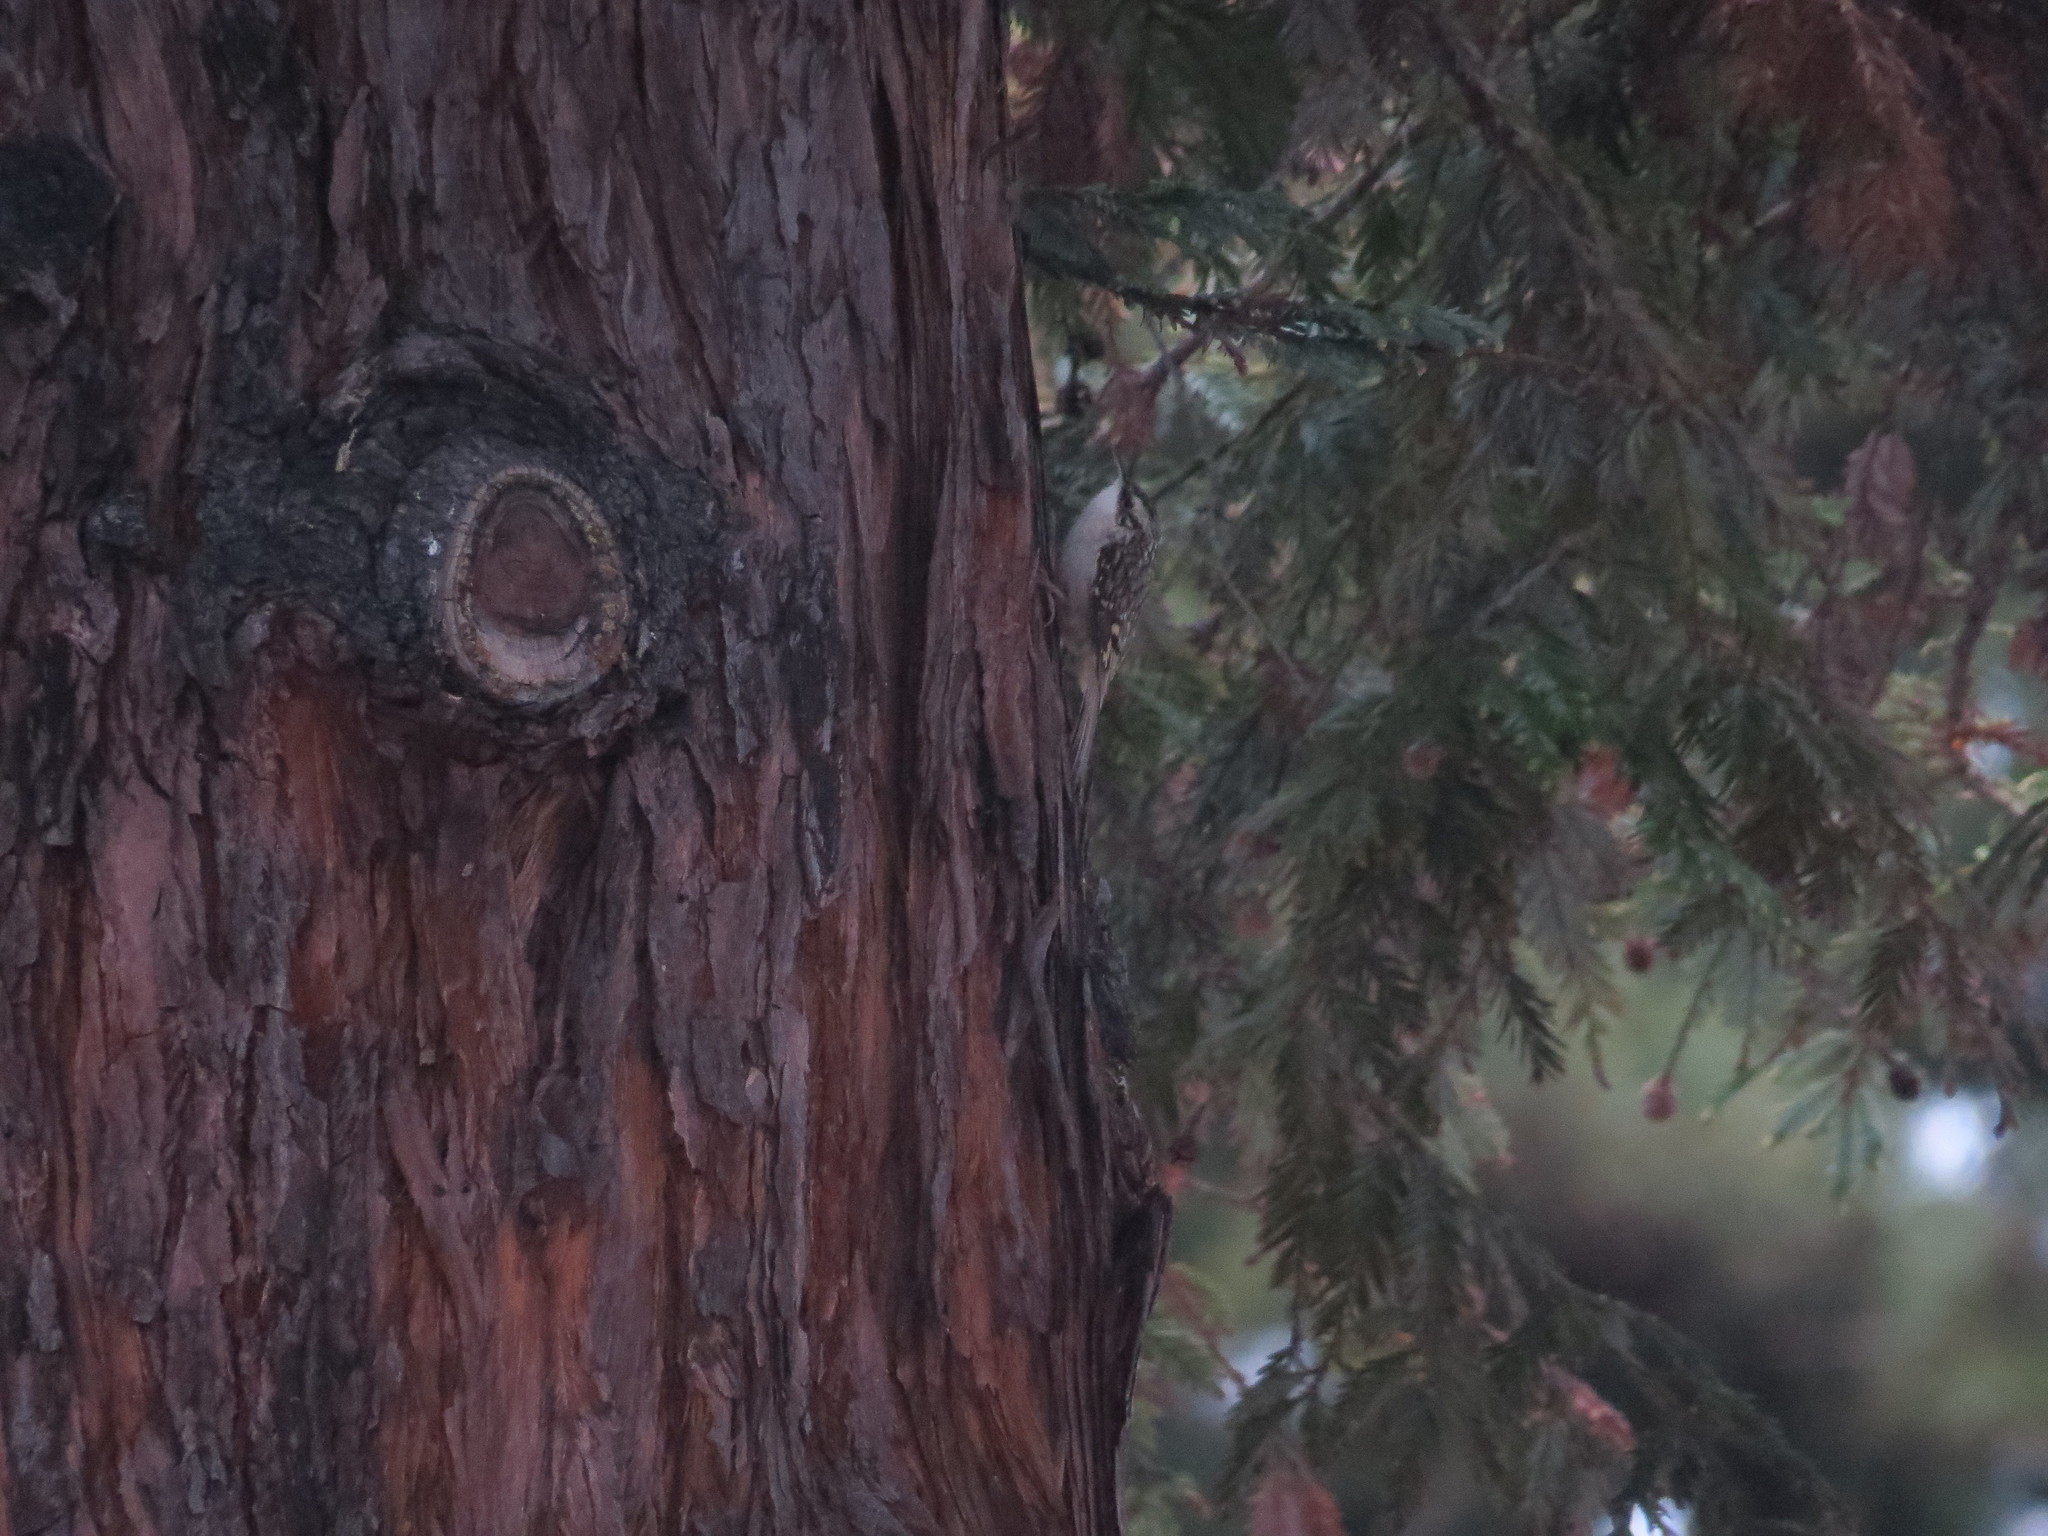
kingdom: Animalia
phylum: Chordata
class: Aves
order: Passeriformes
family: Certhiidae
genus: Certhia
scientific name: Certhia americana
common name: Brown creeper
